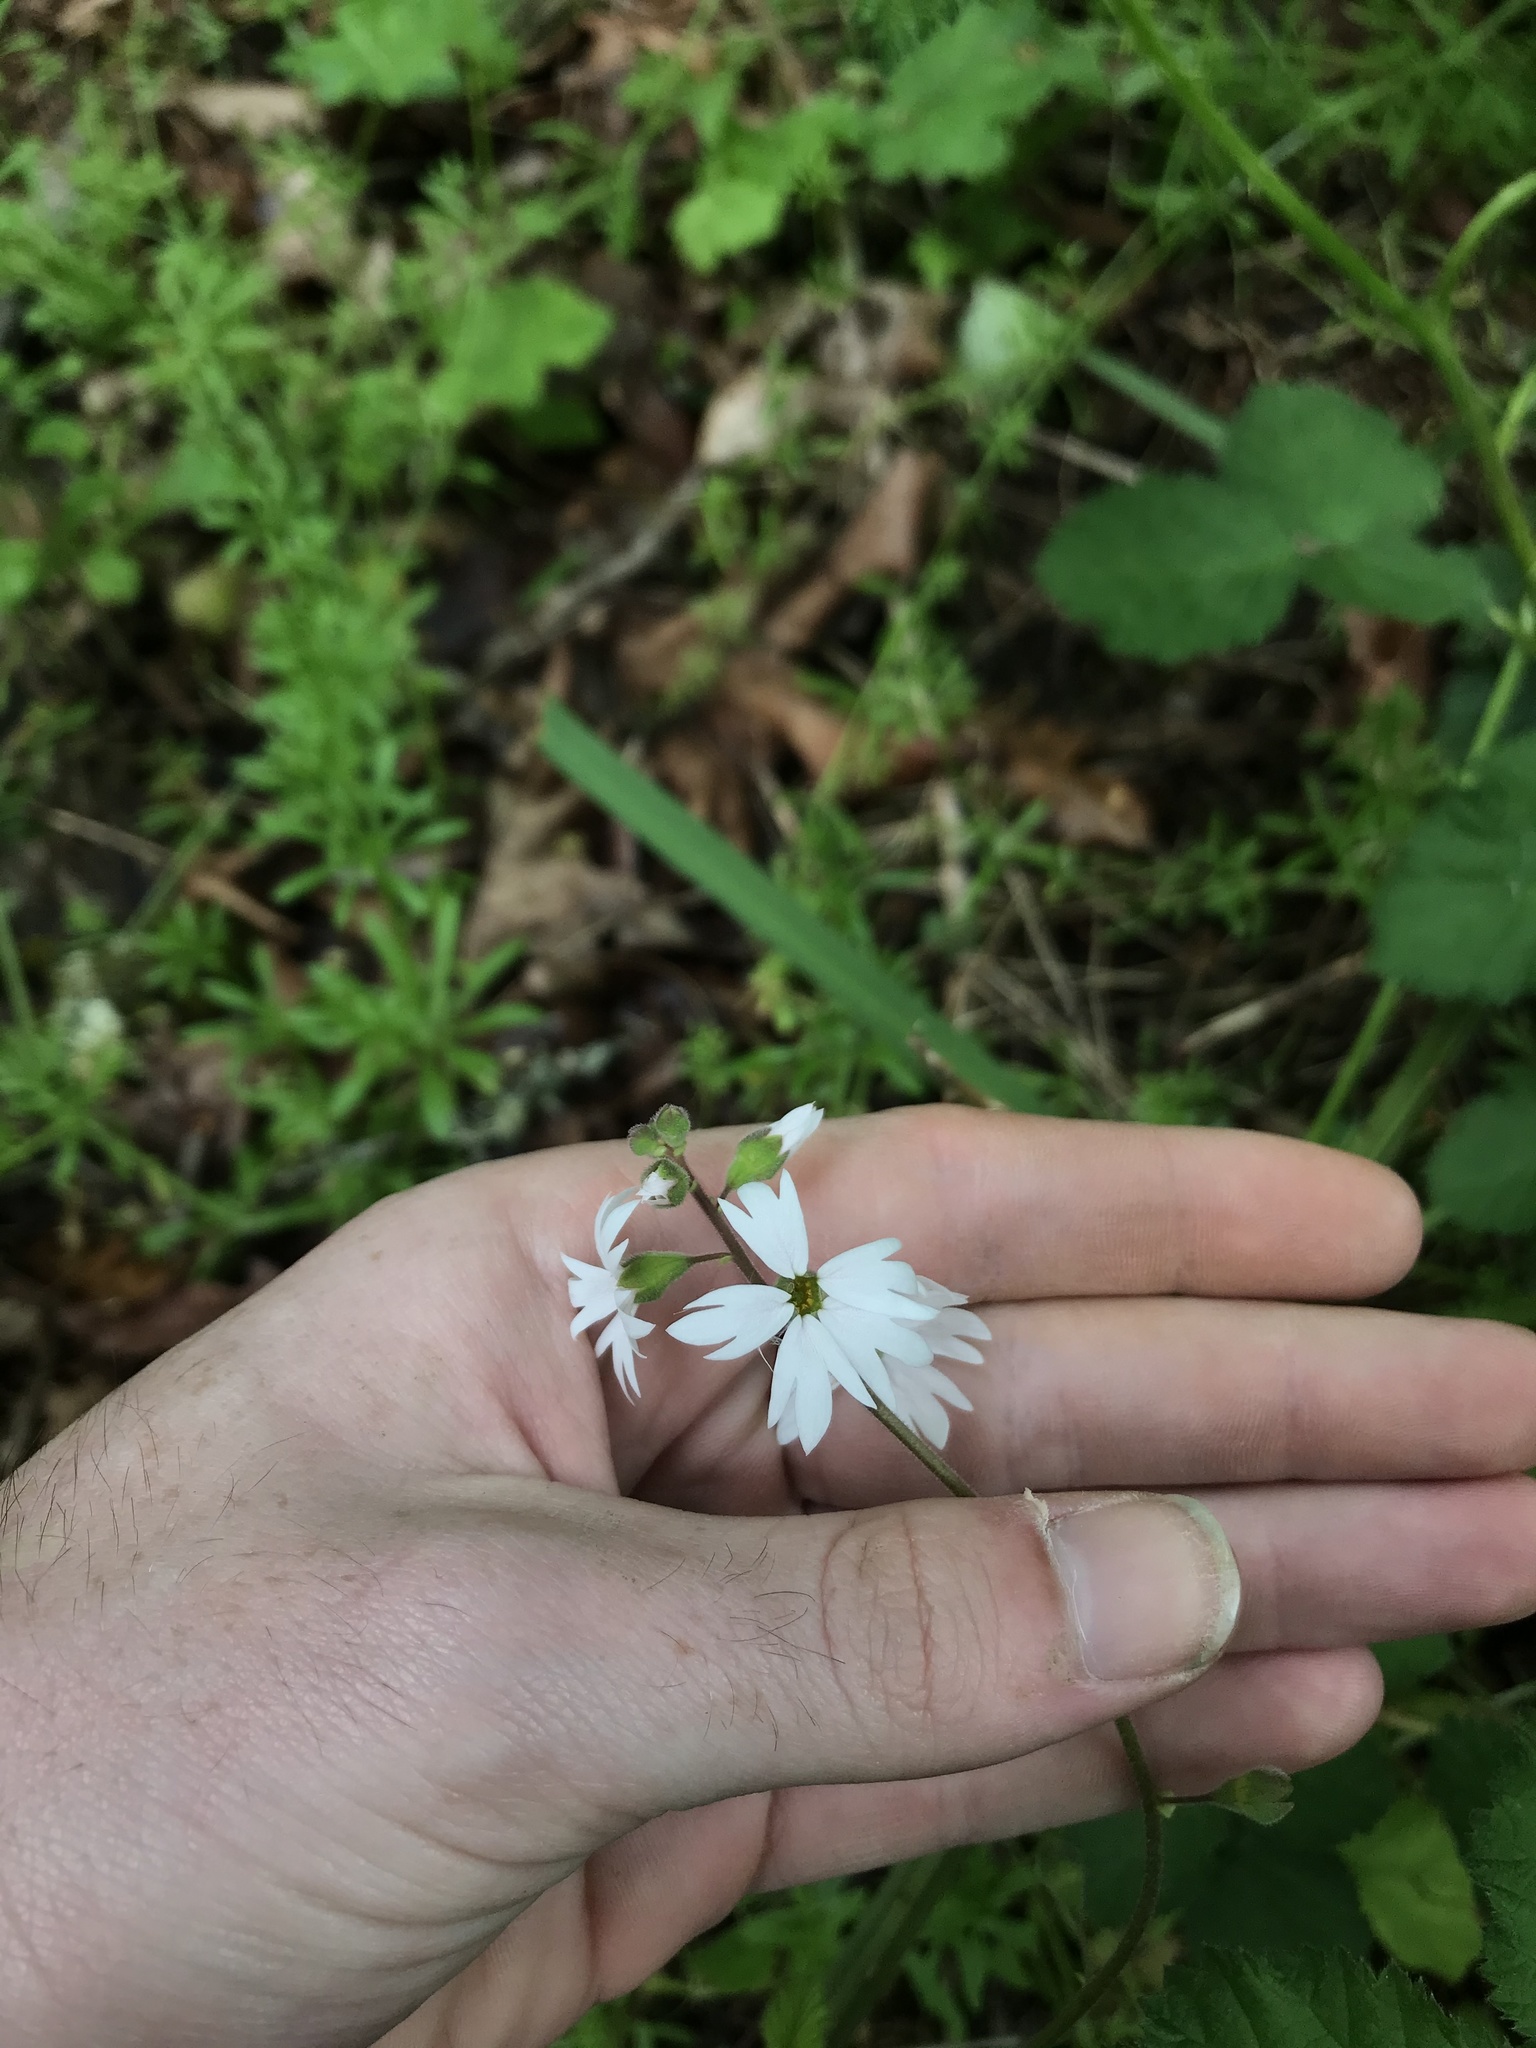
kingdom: Plantae
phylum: Tracheophyta
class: Magnoliopsida
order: Saxifragales
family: Saxifragaceae
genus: Lithophragma
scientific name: Lithophragma parviflorum
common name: Small-flowered fringe-cup
